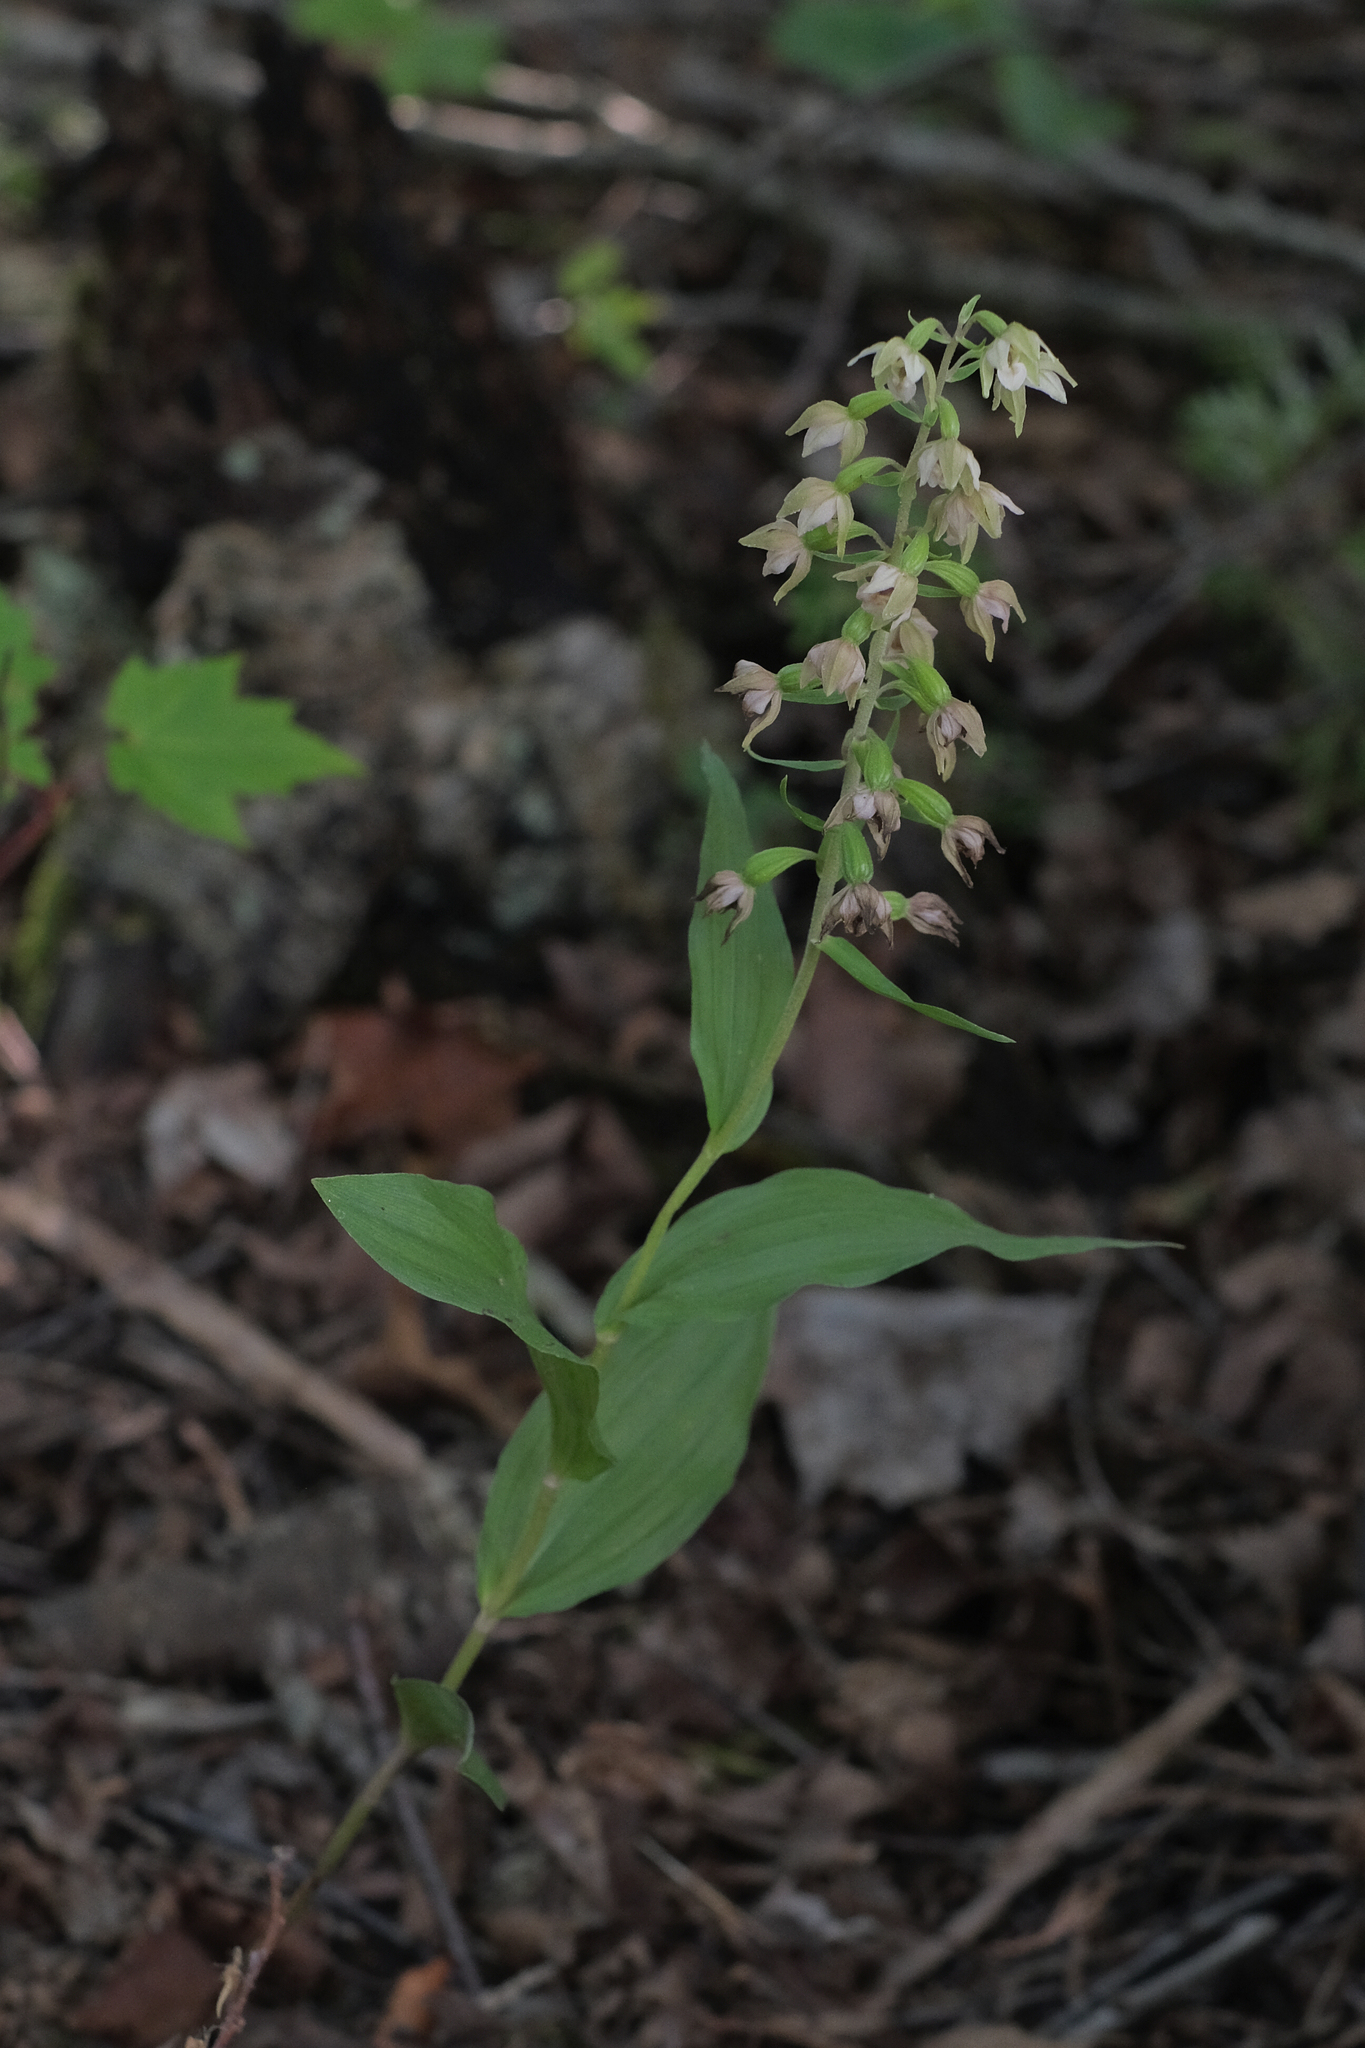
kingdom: Plantae
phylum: Tracheophyta
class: Liliopsida
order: Asparagales
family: Orchidaceae
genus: Epipactis
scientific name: Epipactis helleborine
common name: Broad-leaved helleborine
